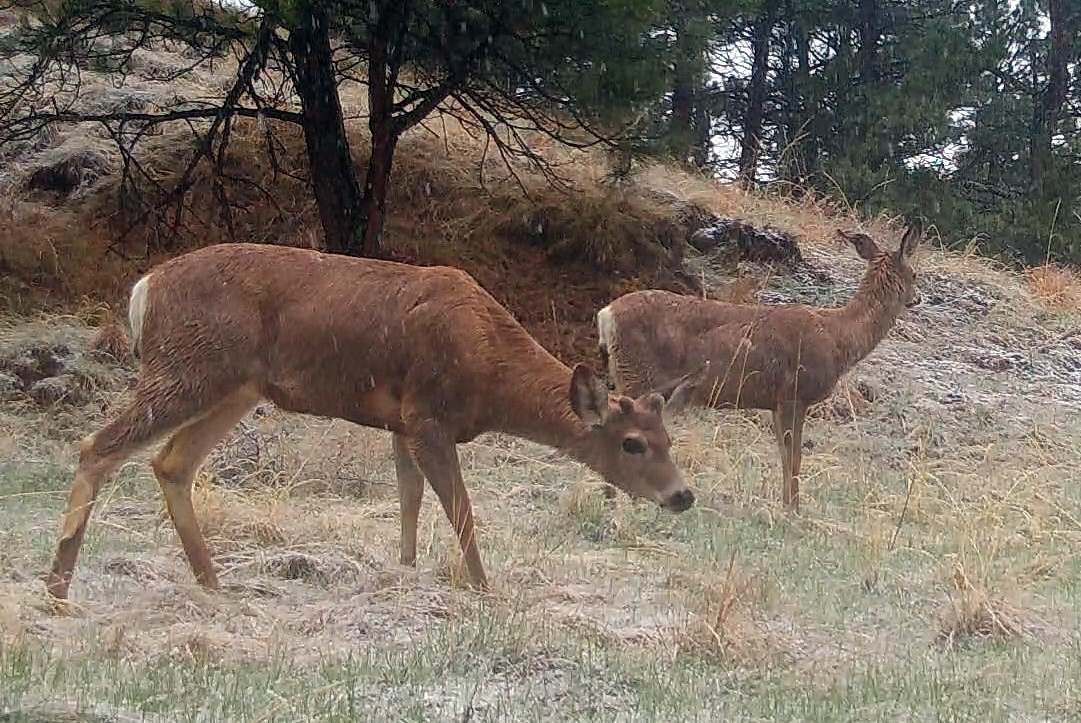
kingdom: Animalia
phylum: Chordata
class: Mammalia
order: Artiodactyla
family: Cervidae
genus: Odocoileus
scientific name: Odocoileus hemionus
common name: Mule deer
